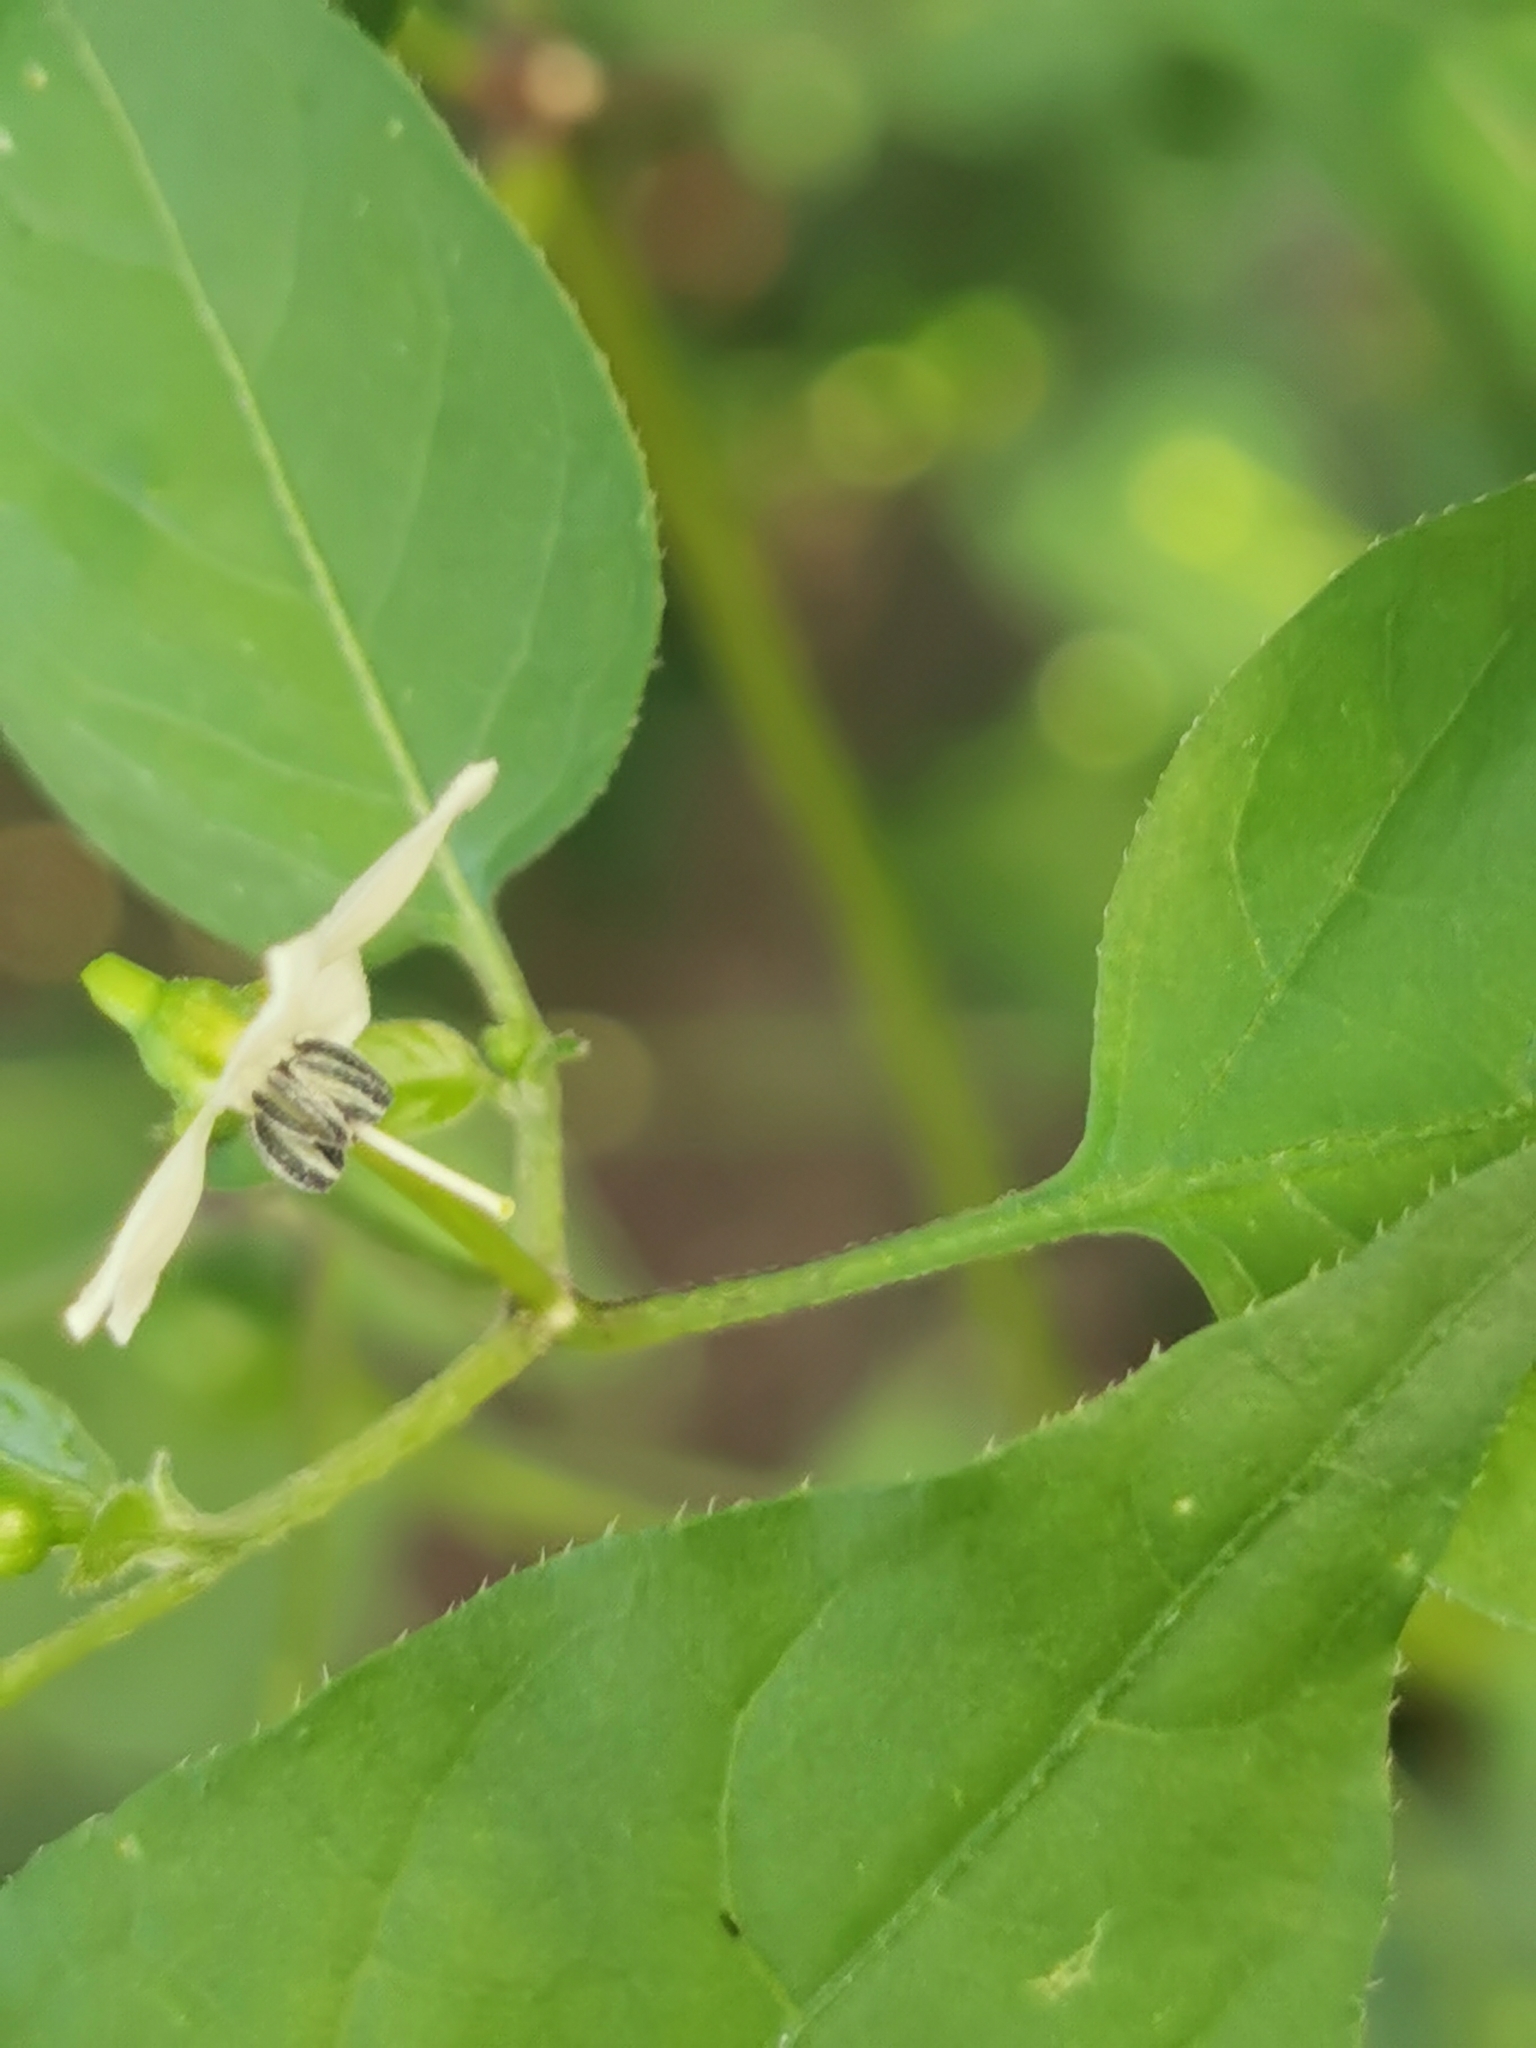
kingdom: Plantae
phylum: Tracheophyta
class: Magnoliopsida
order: Solanales
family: Solanaceae
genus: Capsicum
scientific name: Capsicum annuum
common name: Sweet pepper
